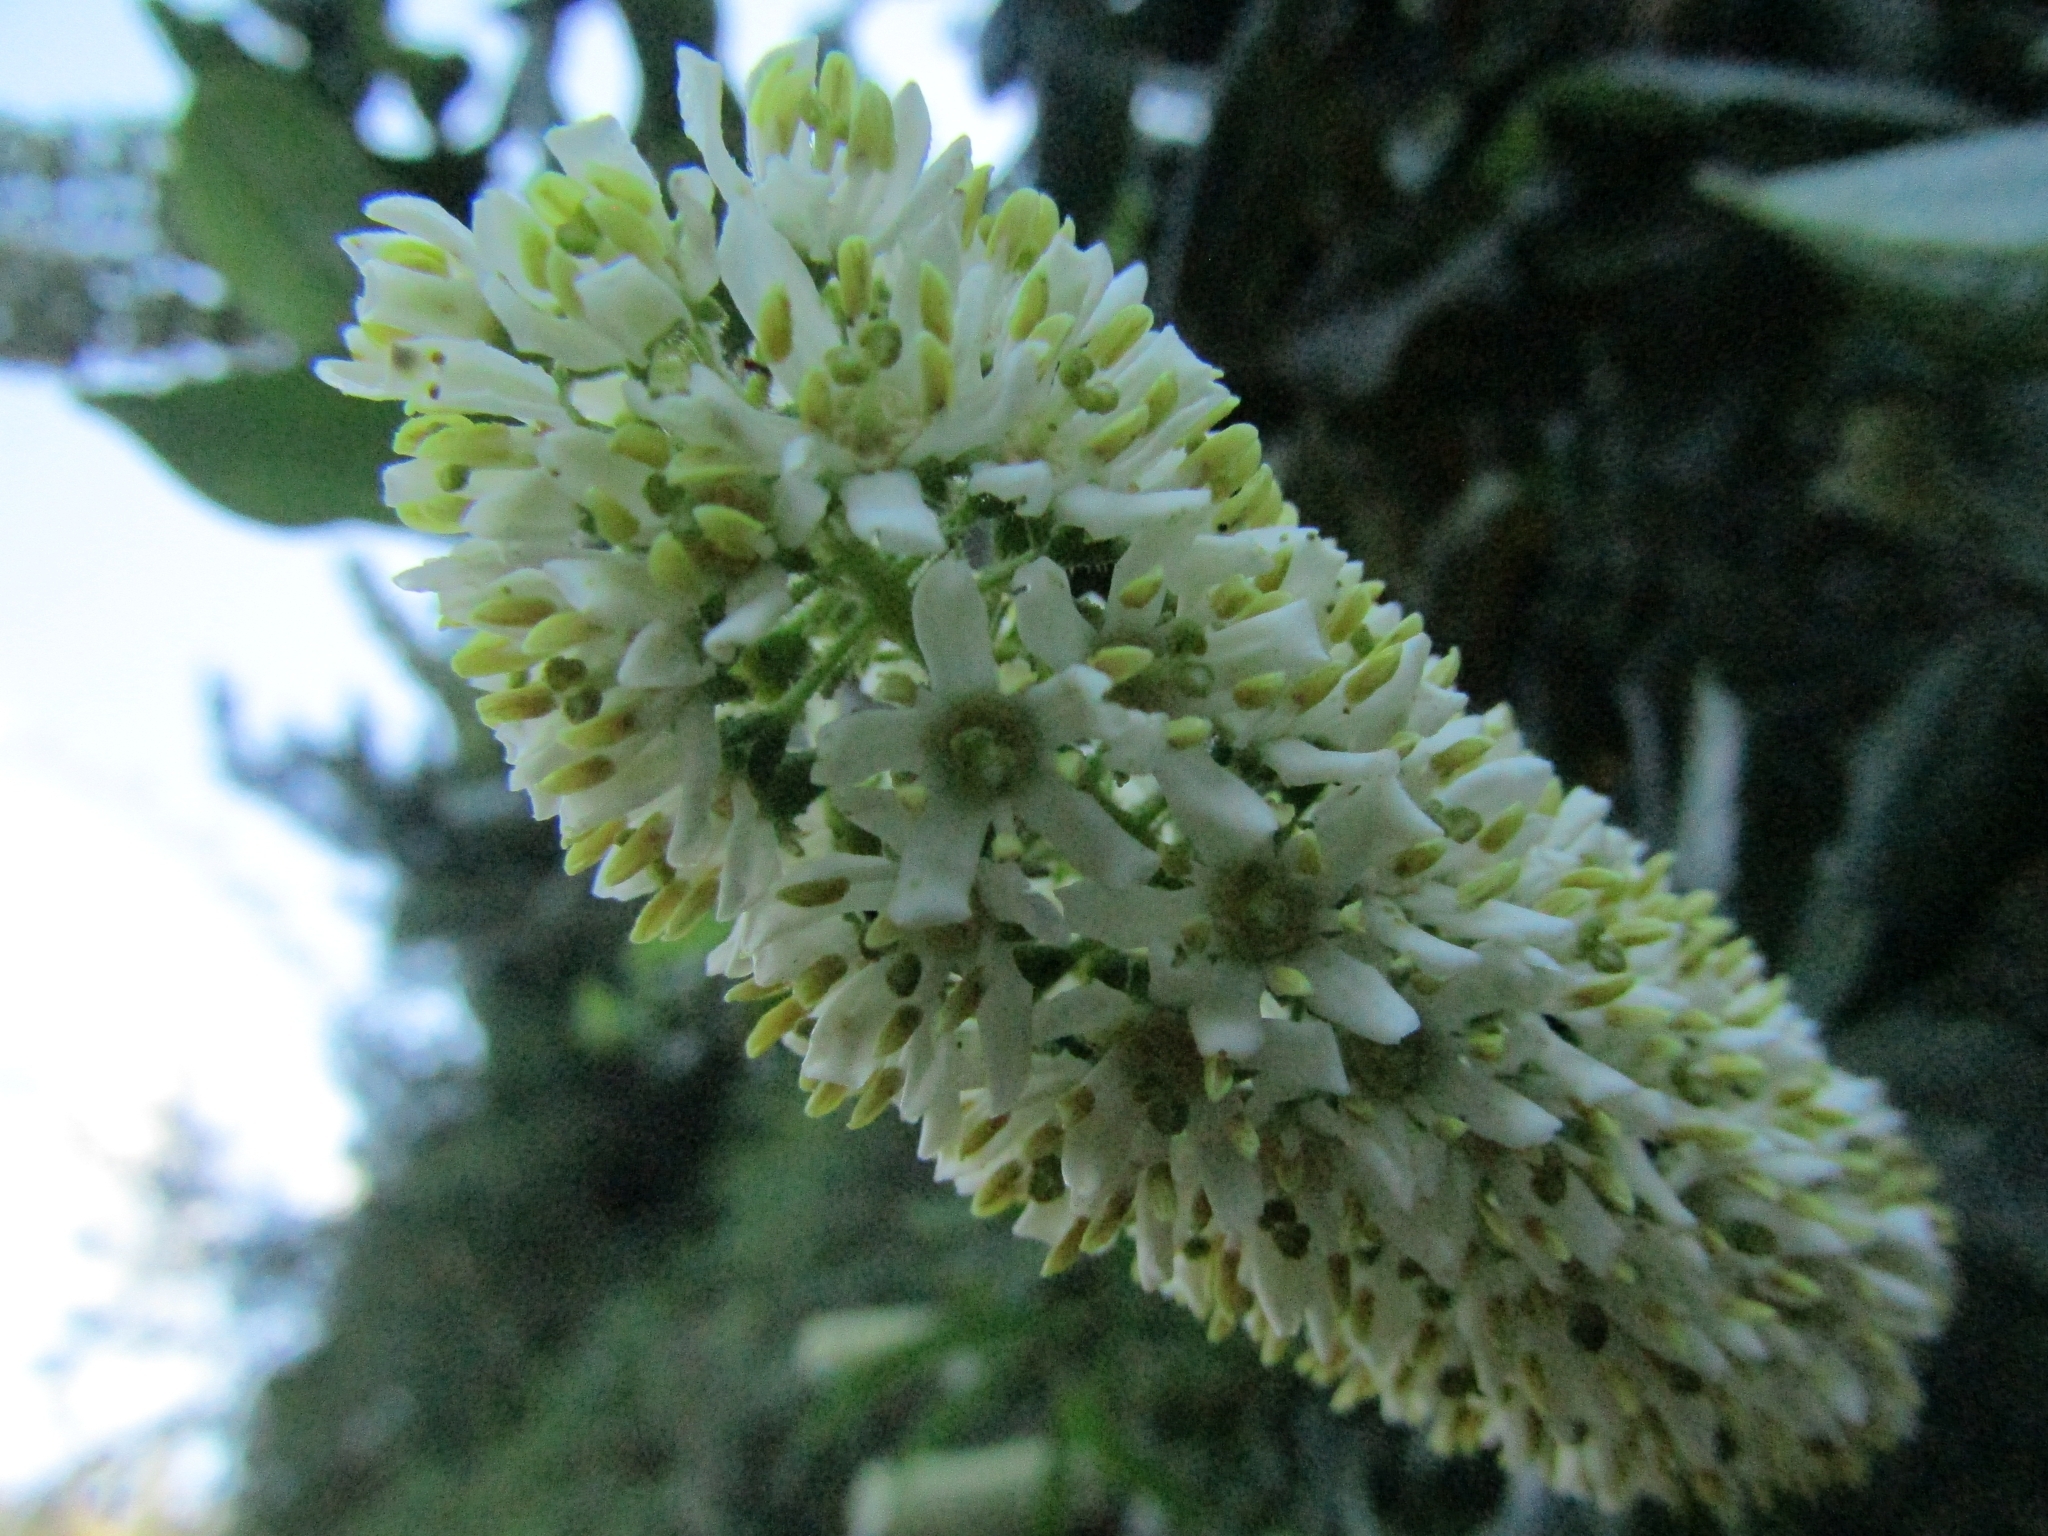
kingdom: Plantae
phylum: Tracheophyta
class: Magnoliopsida
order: Escalloniales
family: Escalloniaceae
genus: Escallonia
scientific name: Escallonia pulverulenta
